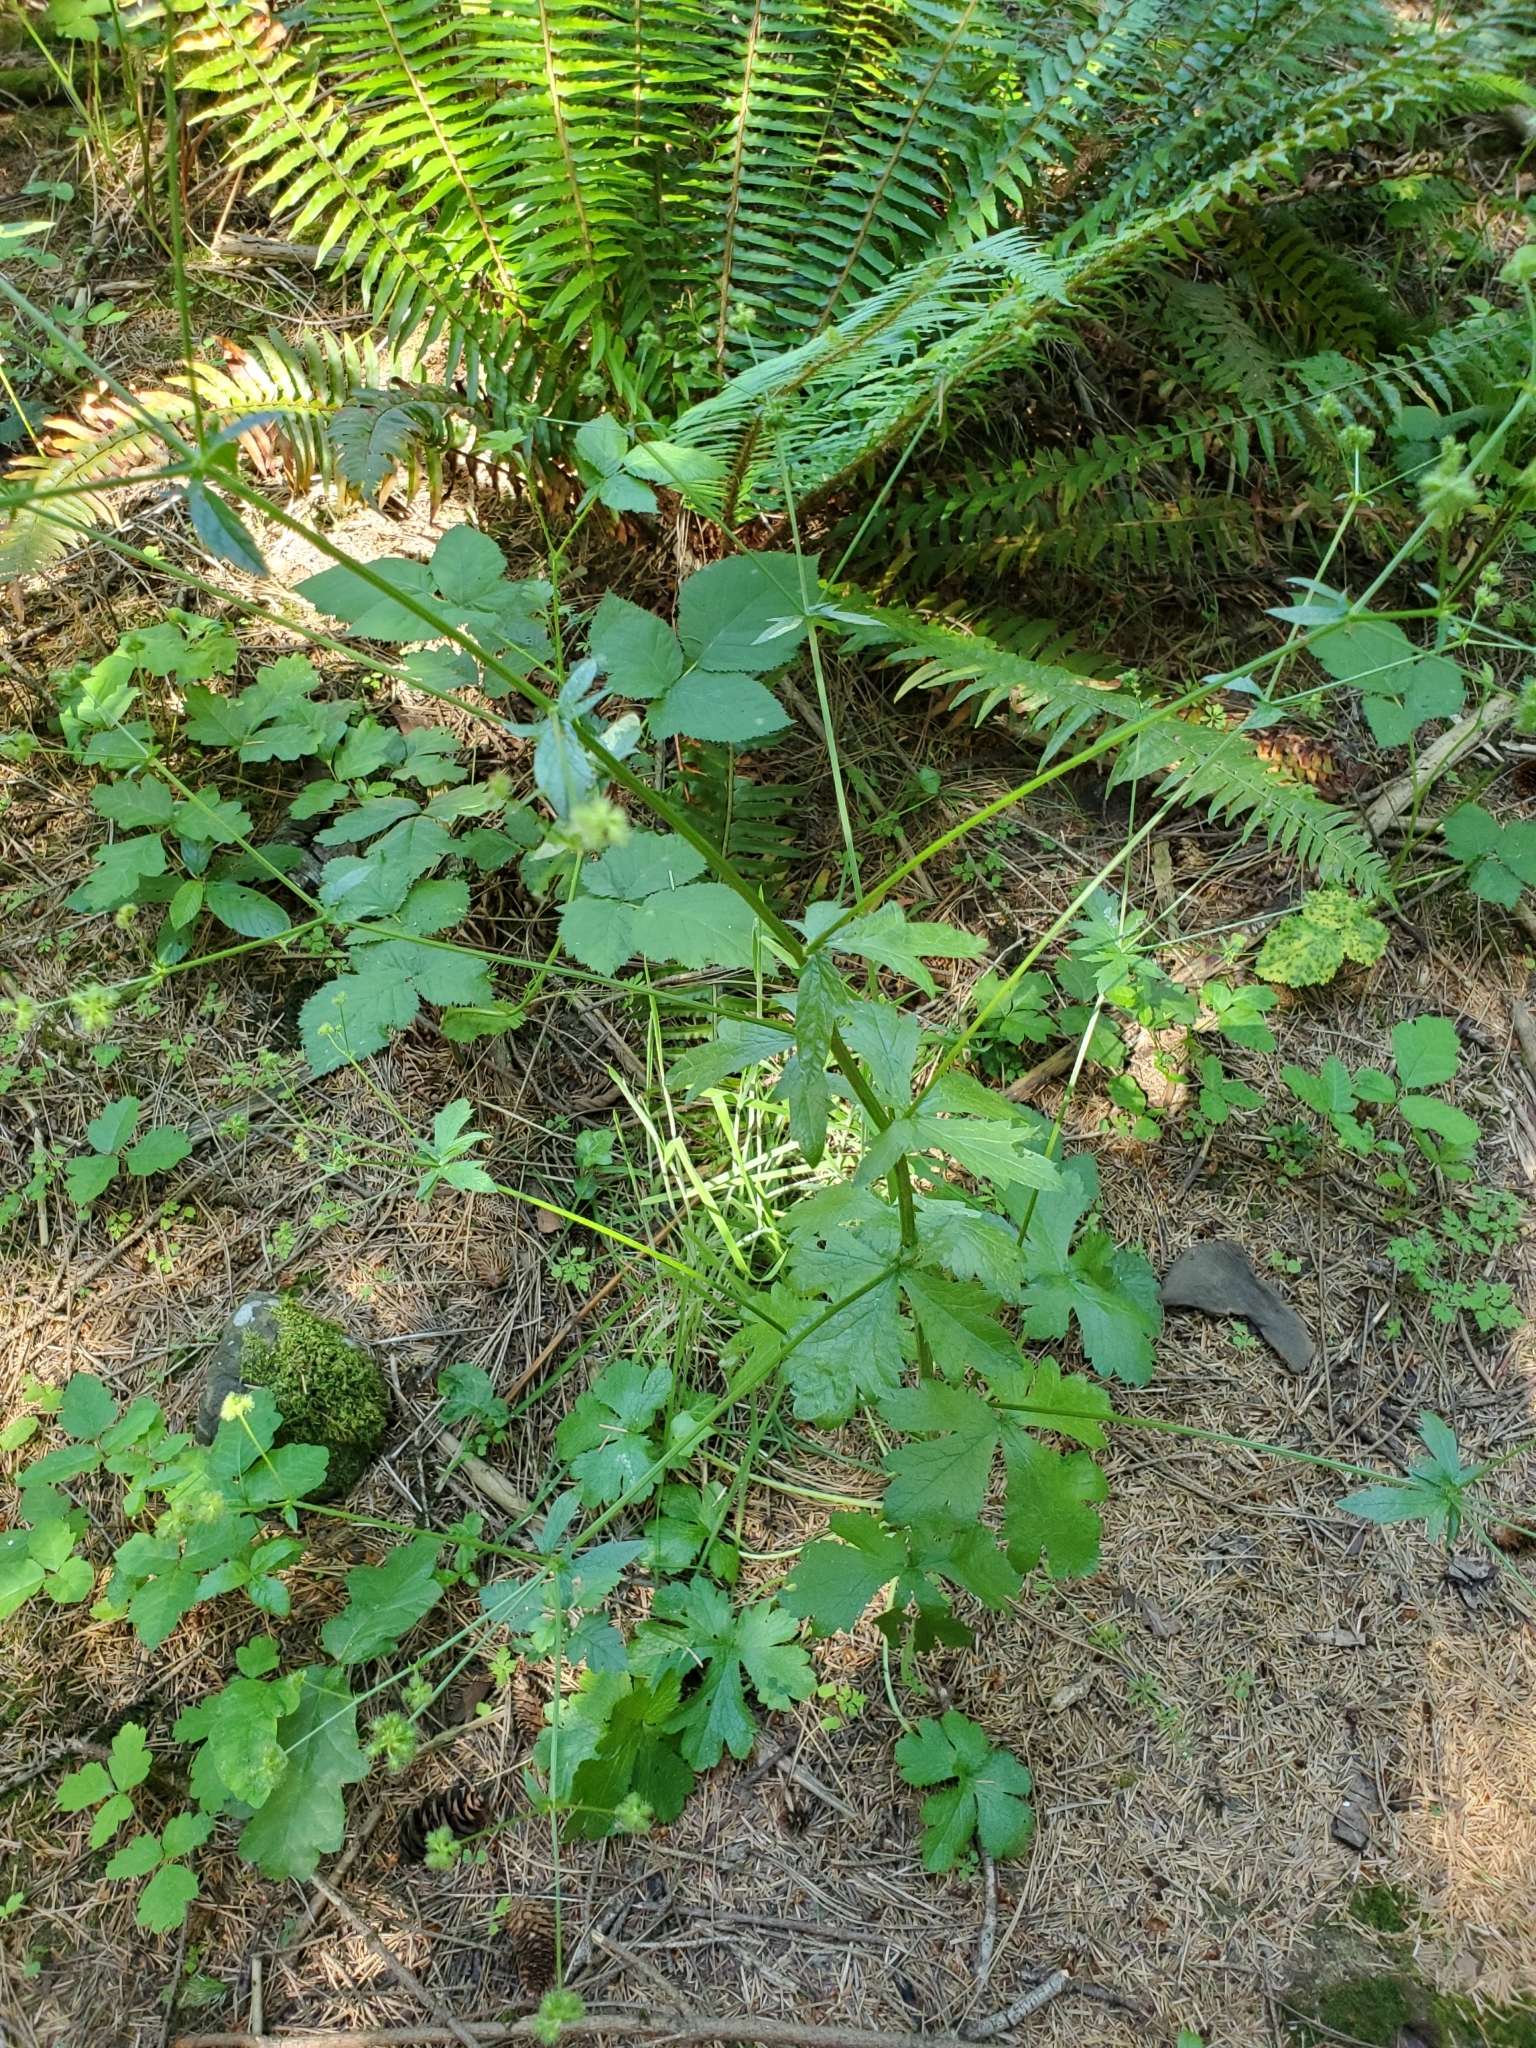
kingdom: Plantae
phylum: Tracheophyta
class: Magnoliopsida
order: Apiales
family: Apiaceae
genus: Sanicula
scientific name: Sanicula crassicaulis
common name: Western snakeroot
